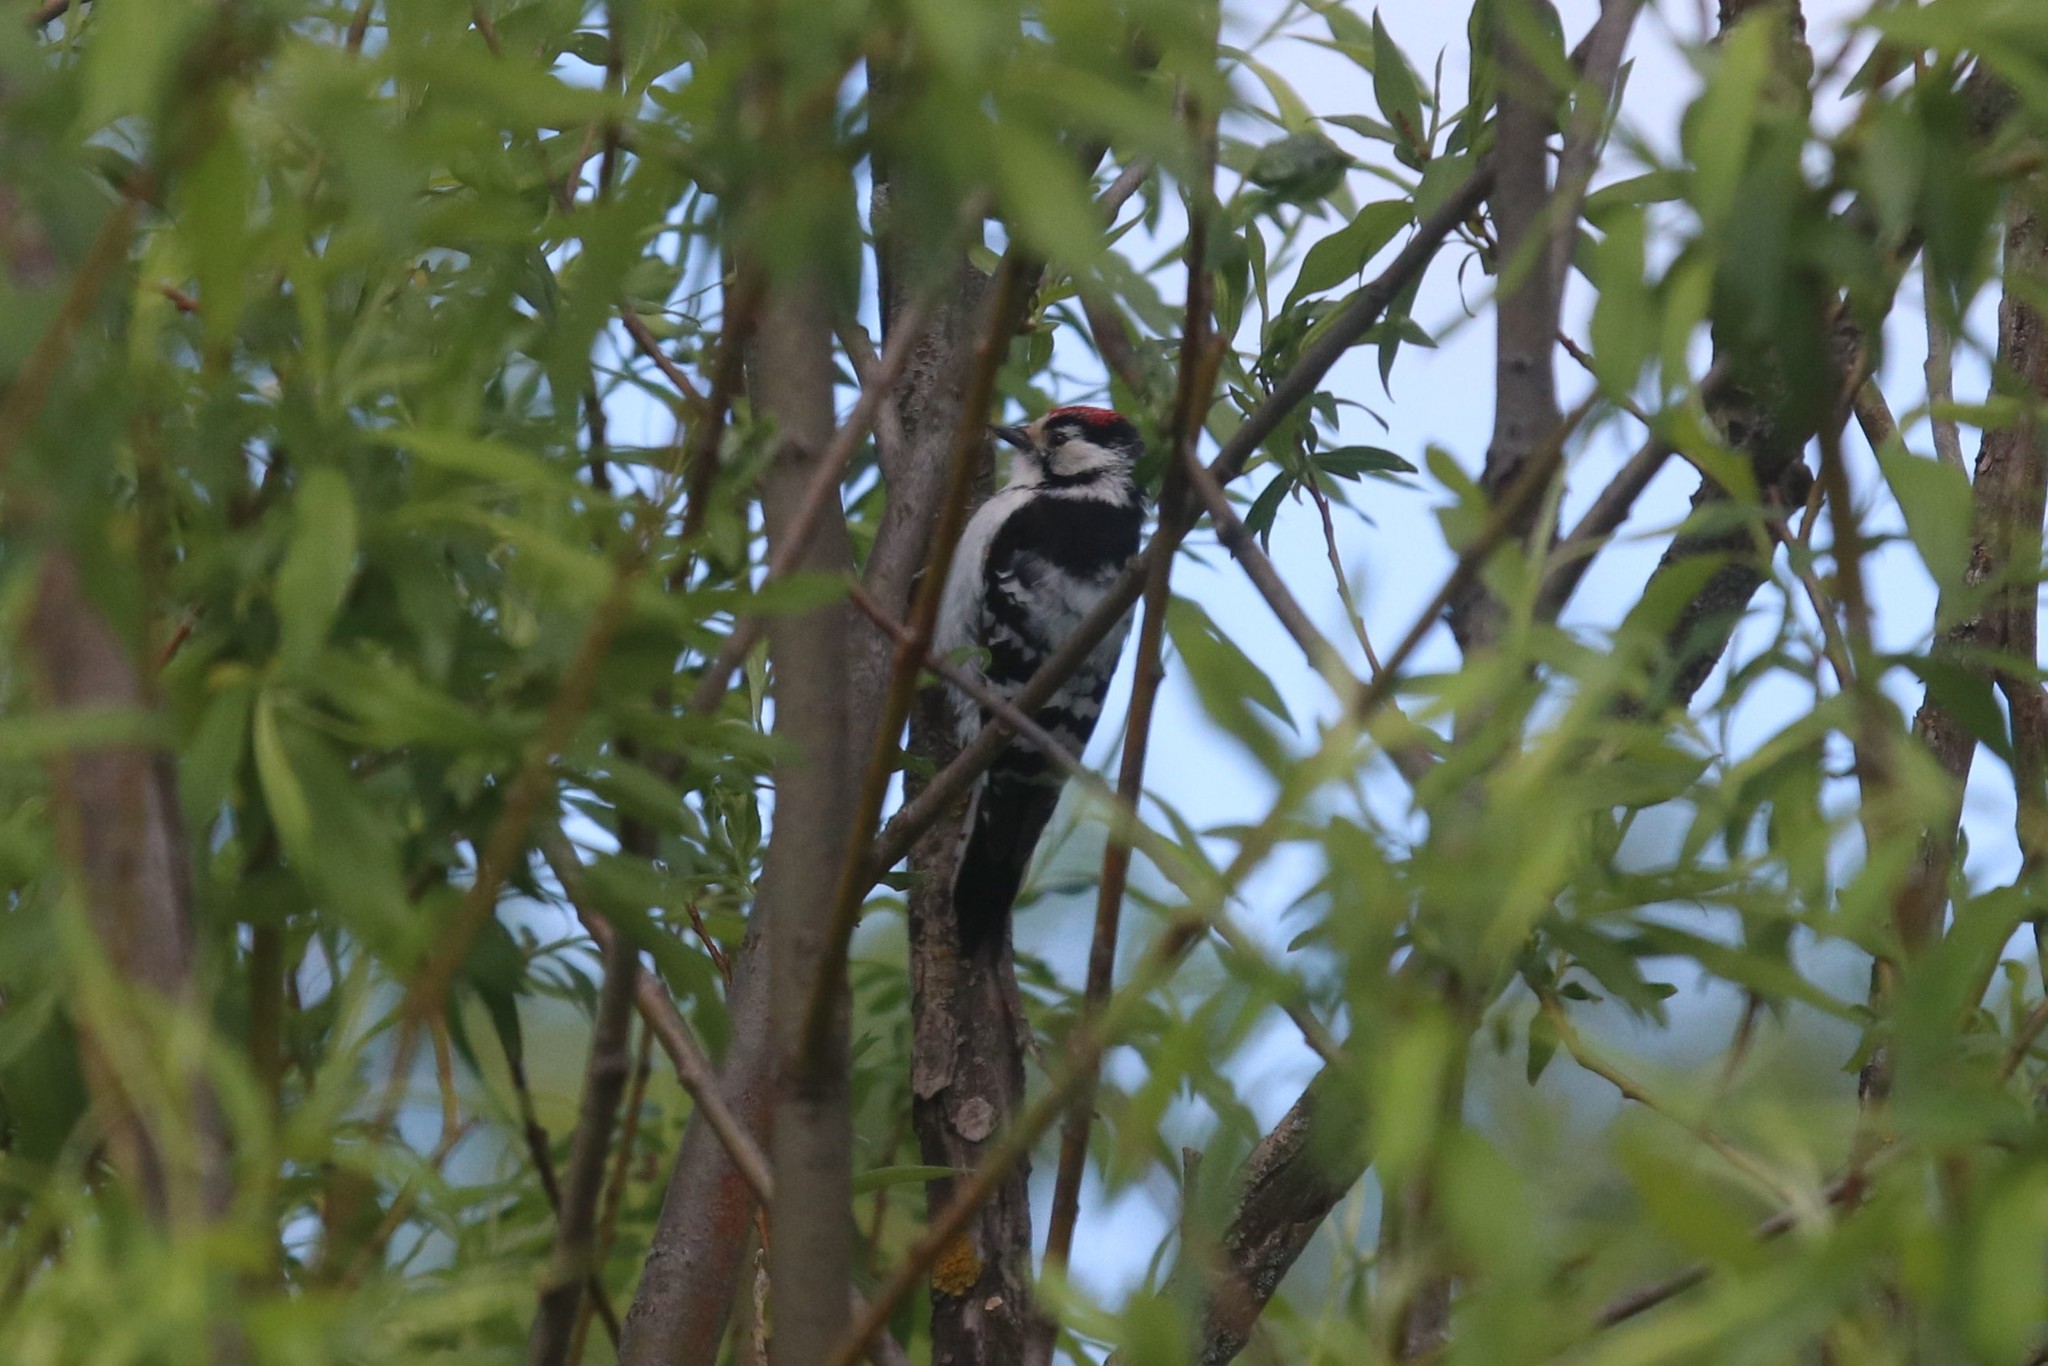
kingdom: Animalia
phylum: Chordata
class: Aves
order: Piciformes
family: Picidae
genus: Dryobates
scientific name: Dryobates minor
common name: Lesser spotted woodpecker
